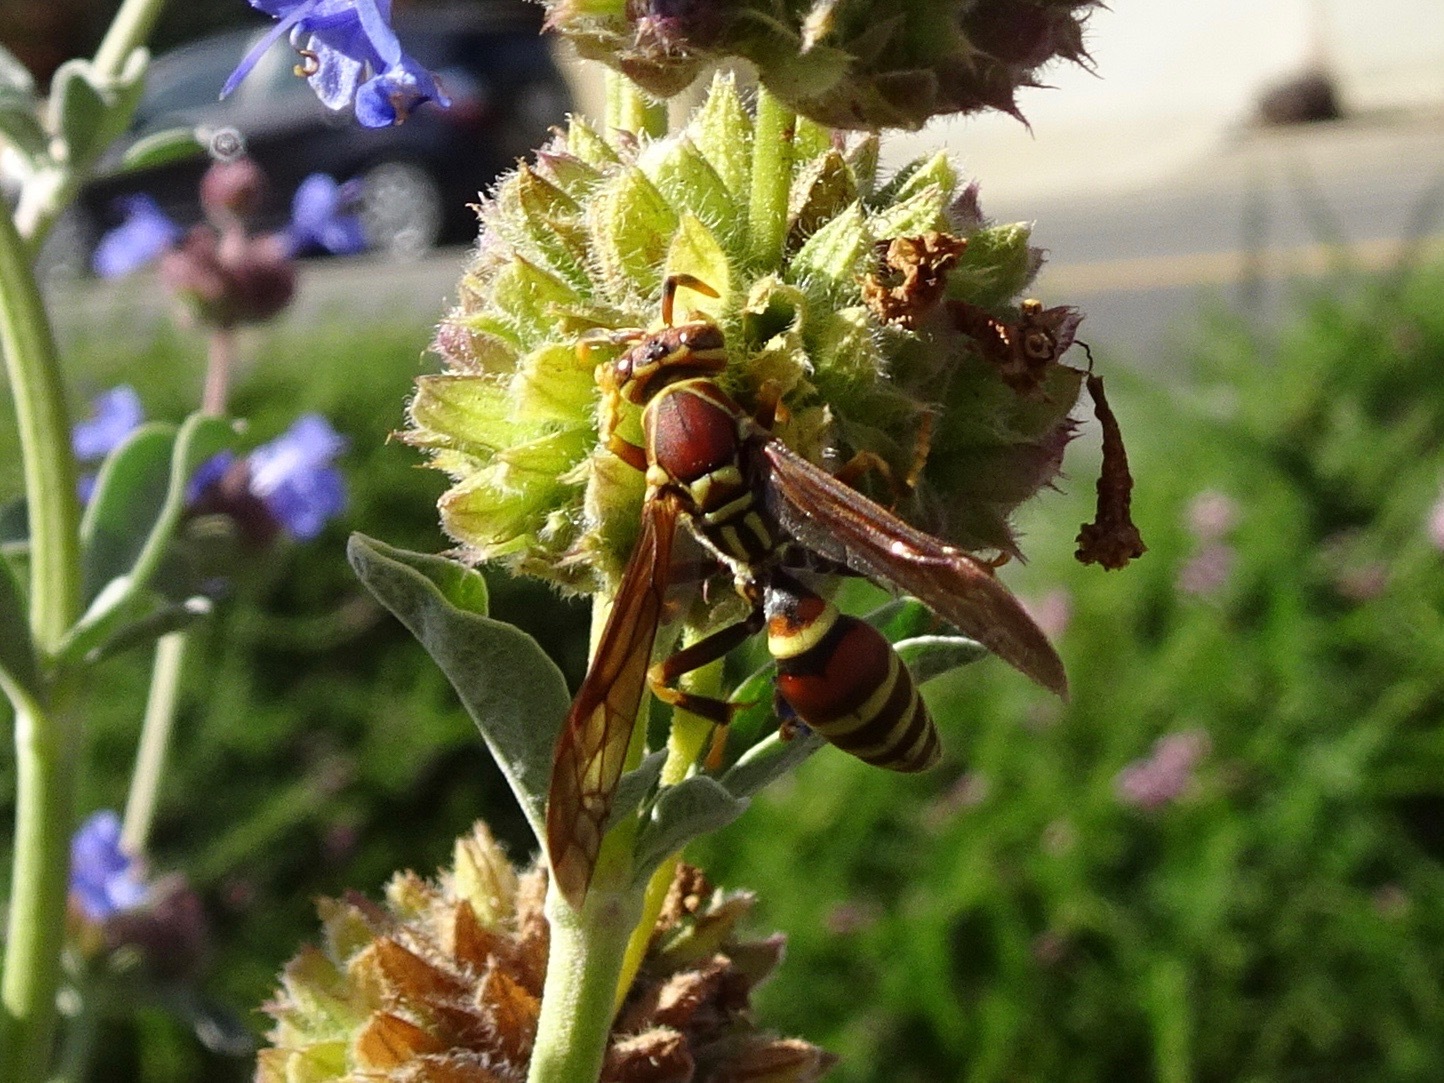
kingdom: Animalia
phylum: Arthropoda
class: Insecta
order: Hymenoptera
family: Eumenidae
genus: Polistes
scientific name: Polistes exclamans
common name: Paper wasp
